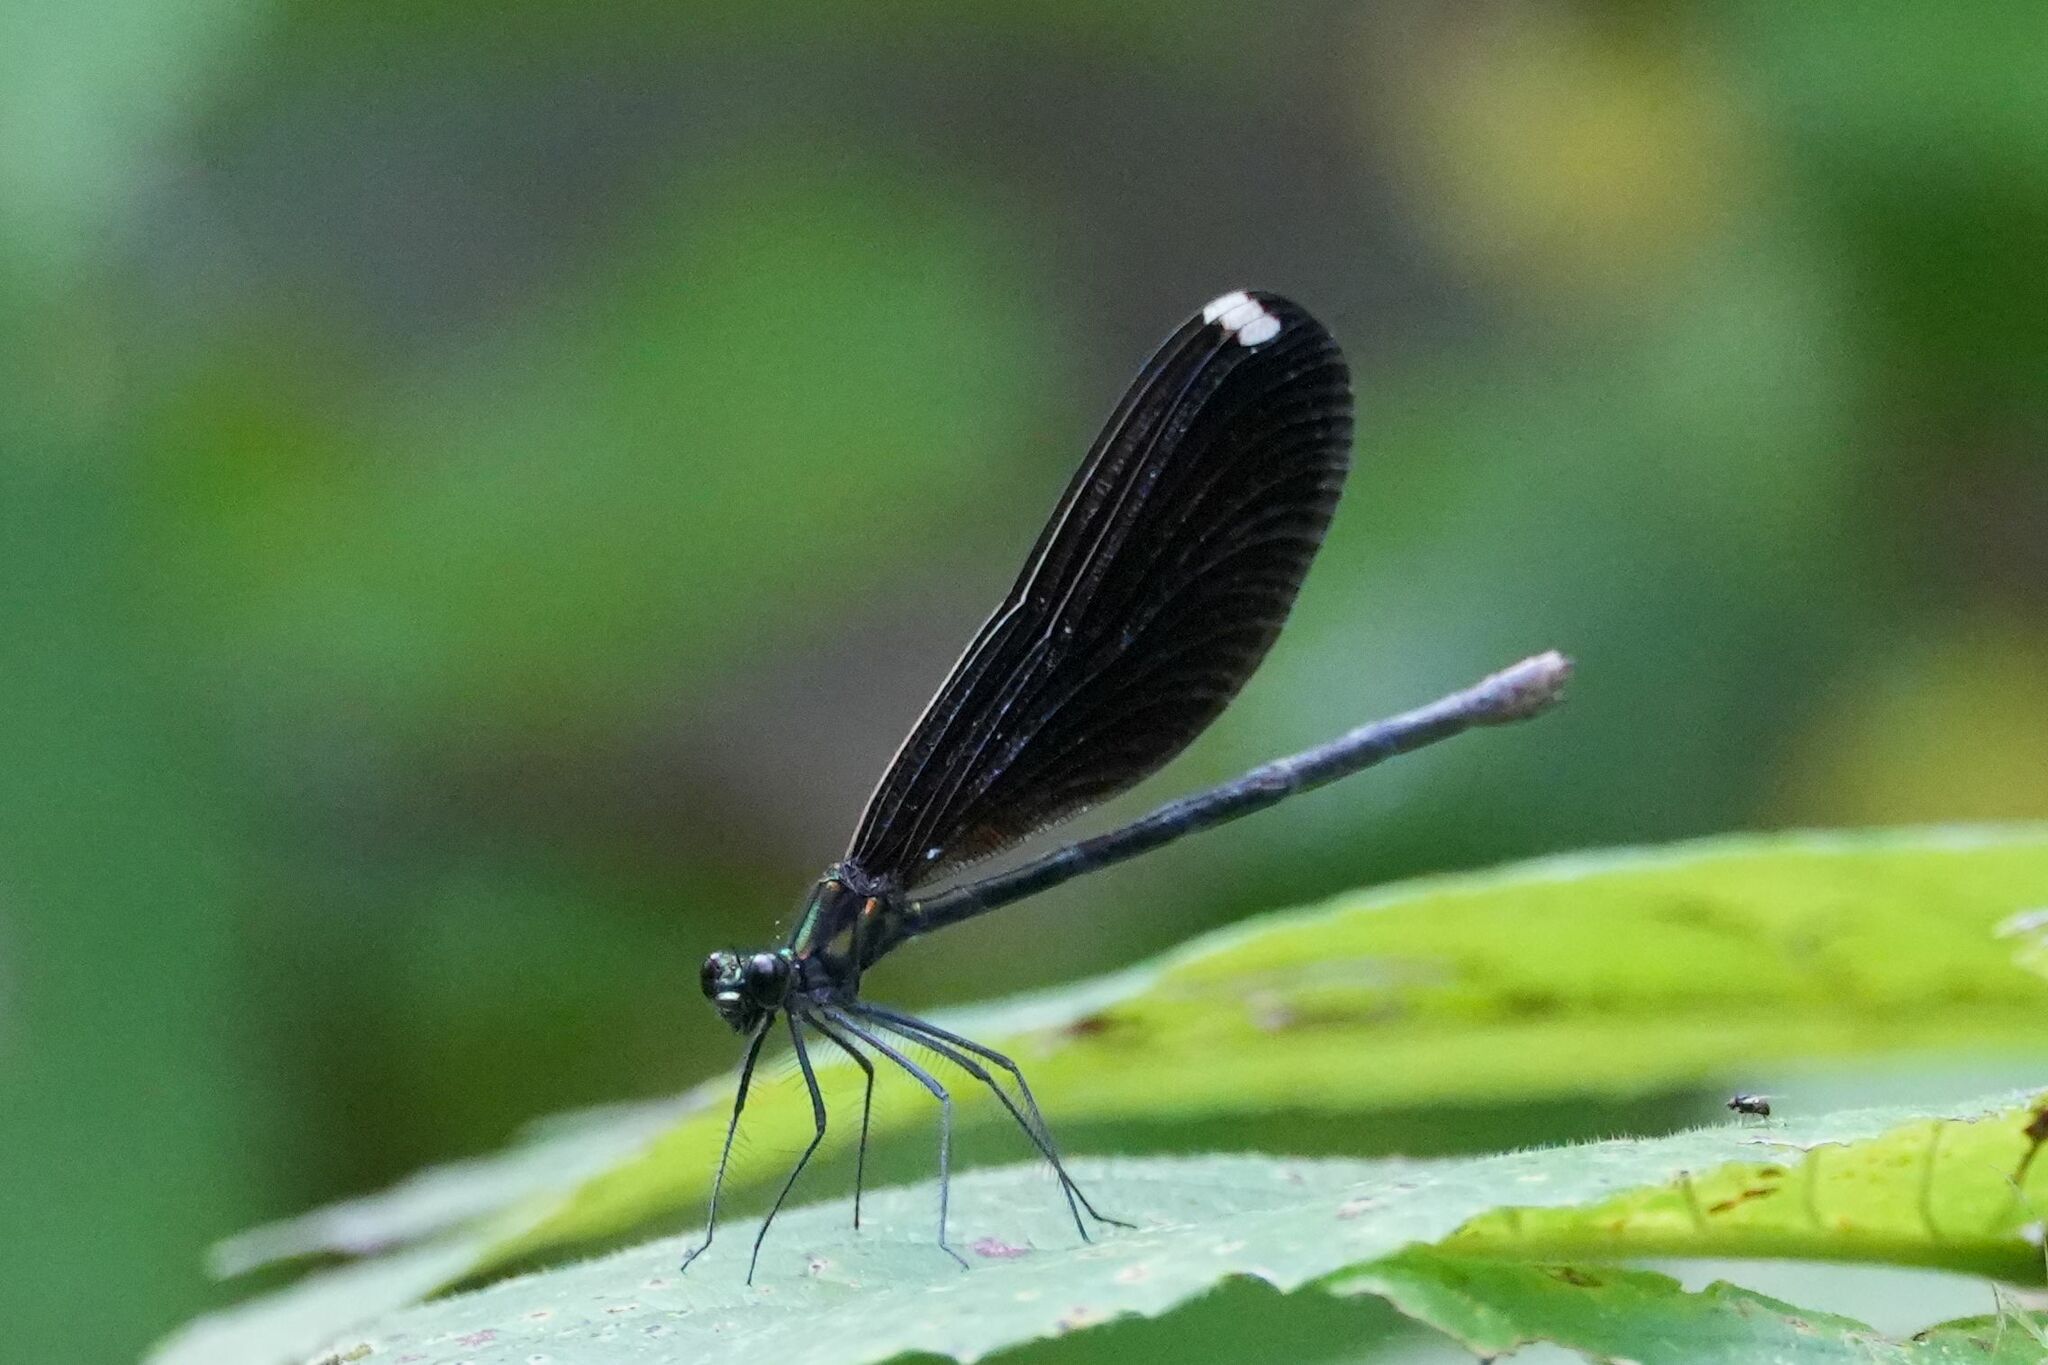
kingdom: Animalia
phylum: Arthropoda
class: Insecta
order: Odonata
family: Calopterygidae
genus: Calopteryx
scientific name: Calopteryx maculata
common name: Ebony jewelwing
